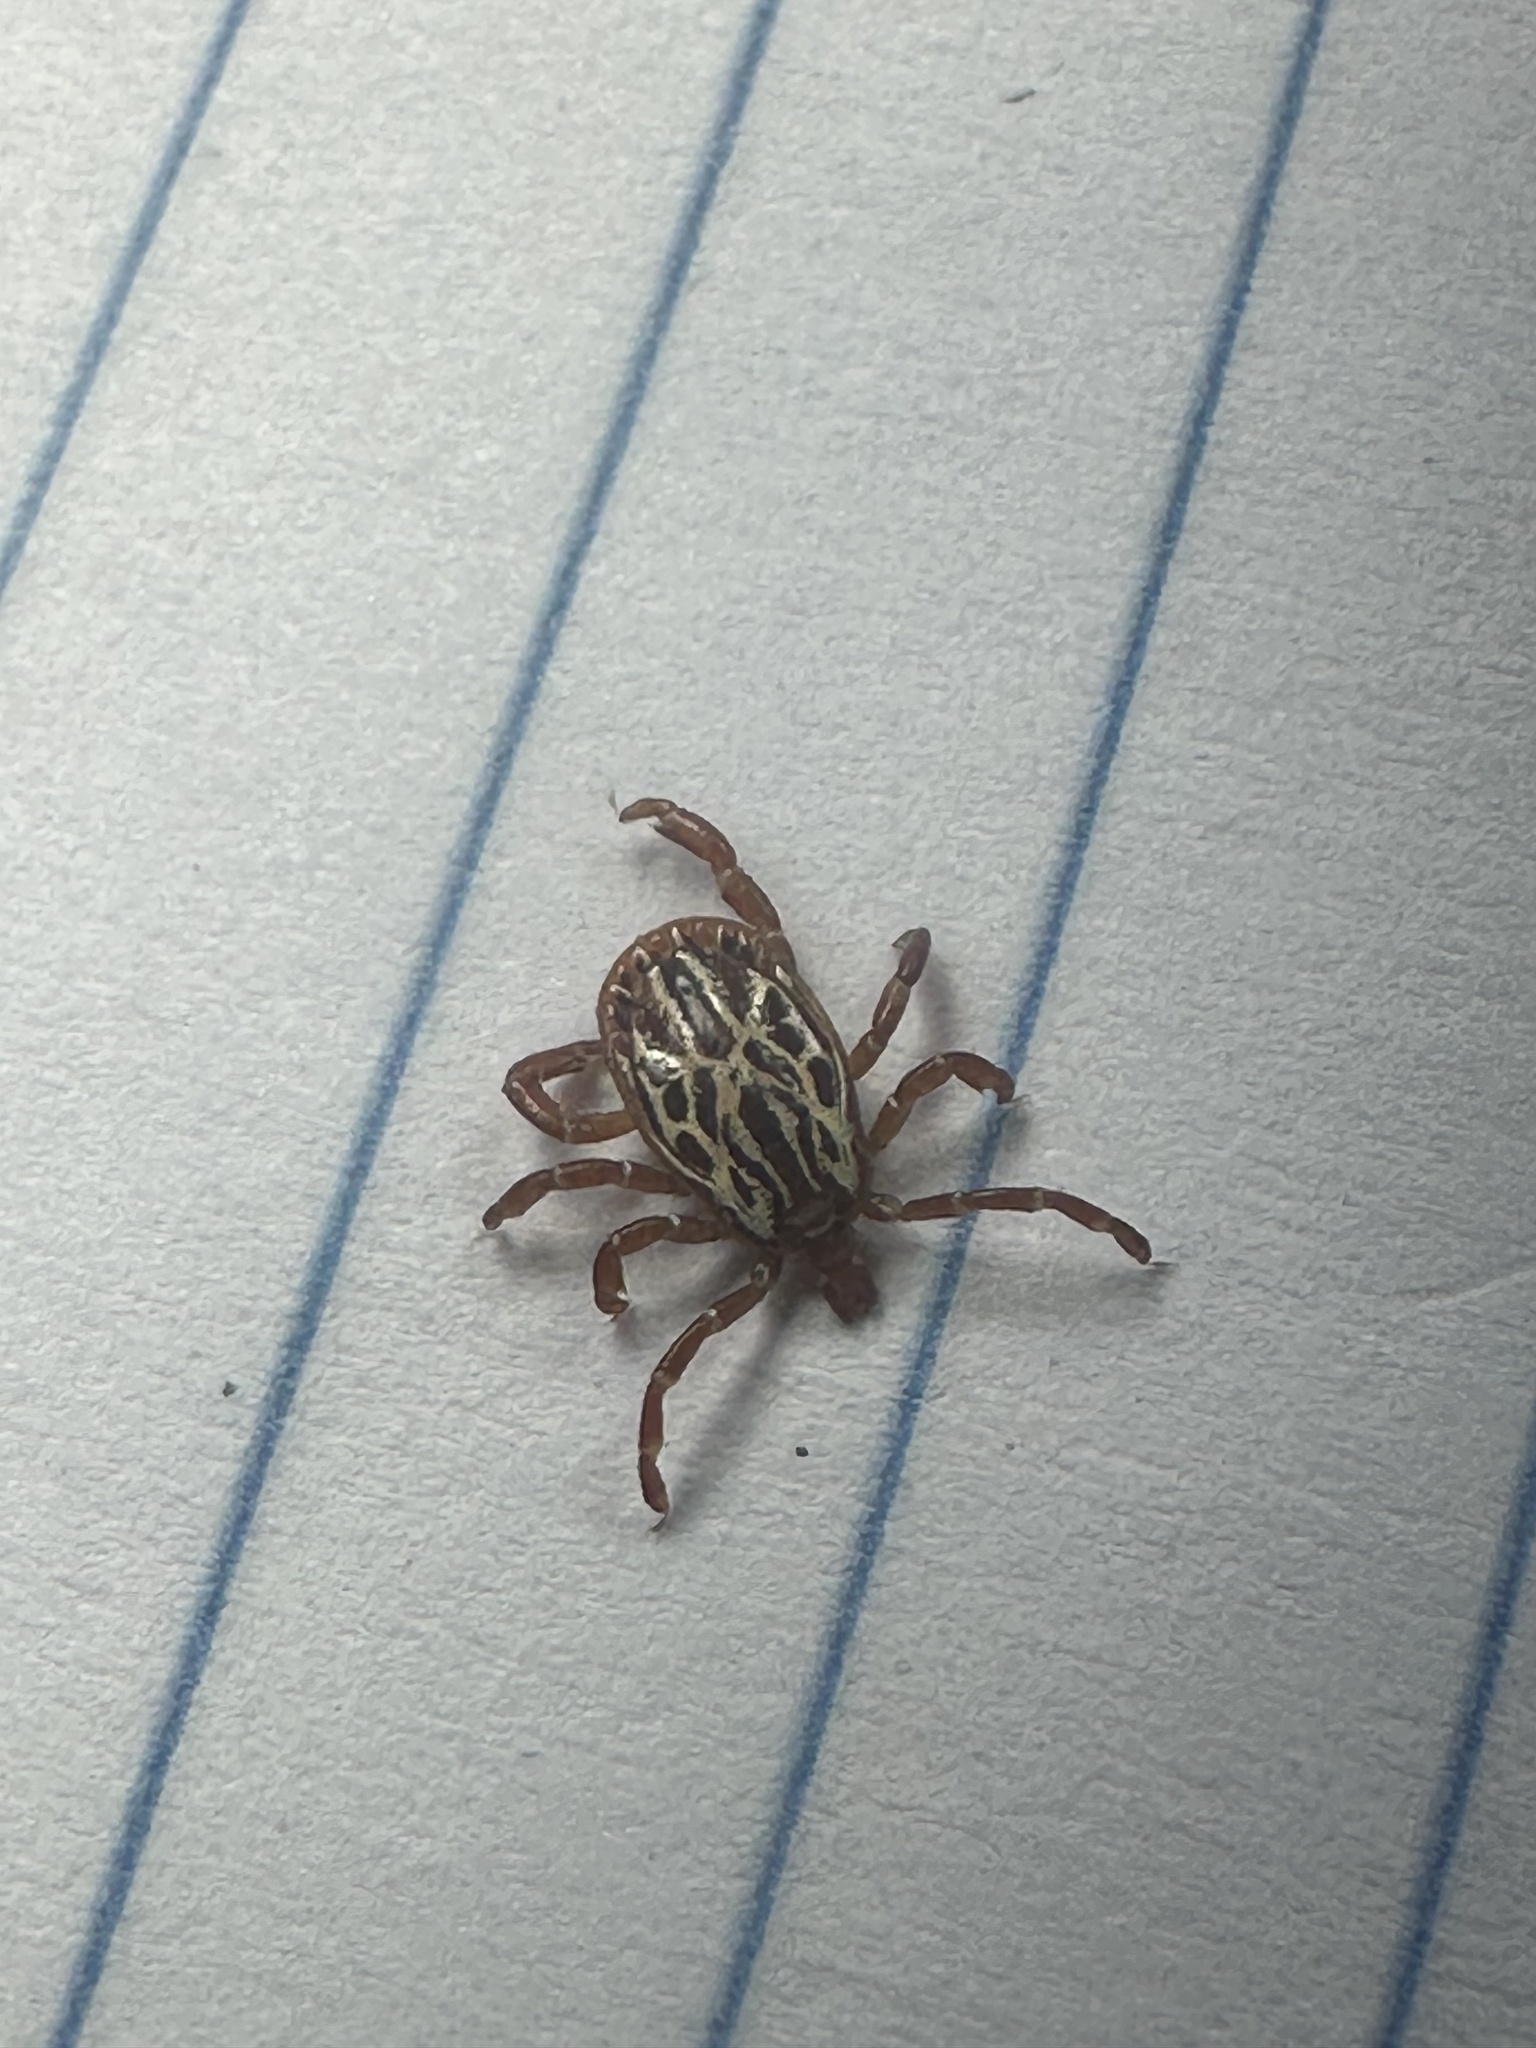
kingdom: Animalia
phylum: Arthropoda
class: Arachnida
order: Ixodida
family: Ixodidae
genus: Amblyomma
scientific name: Amblyomma maculatum
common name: Gulf coast tick
